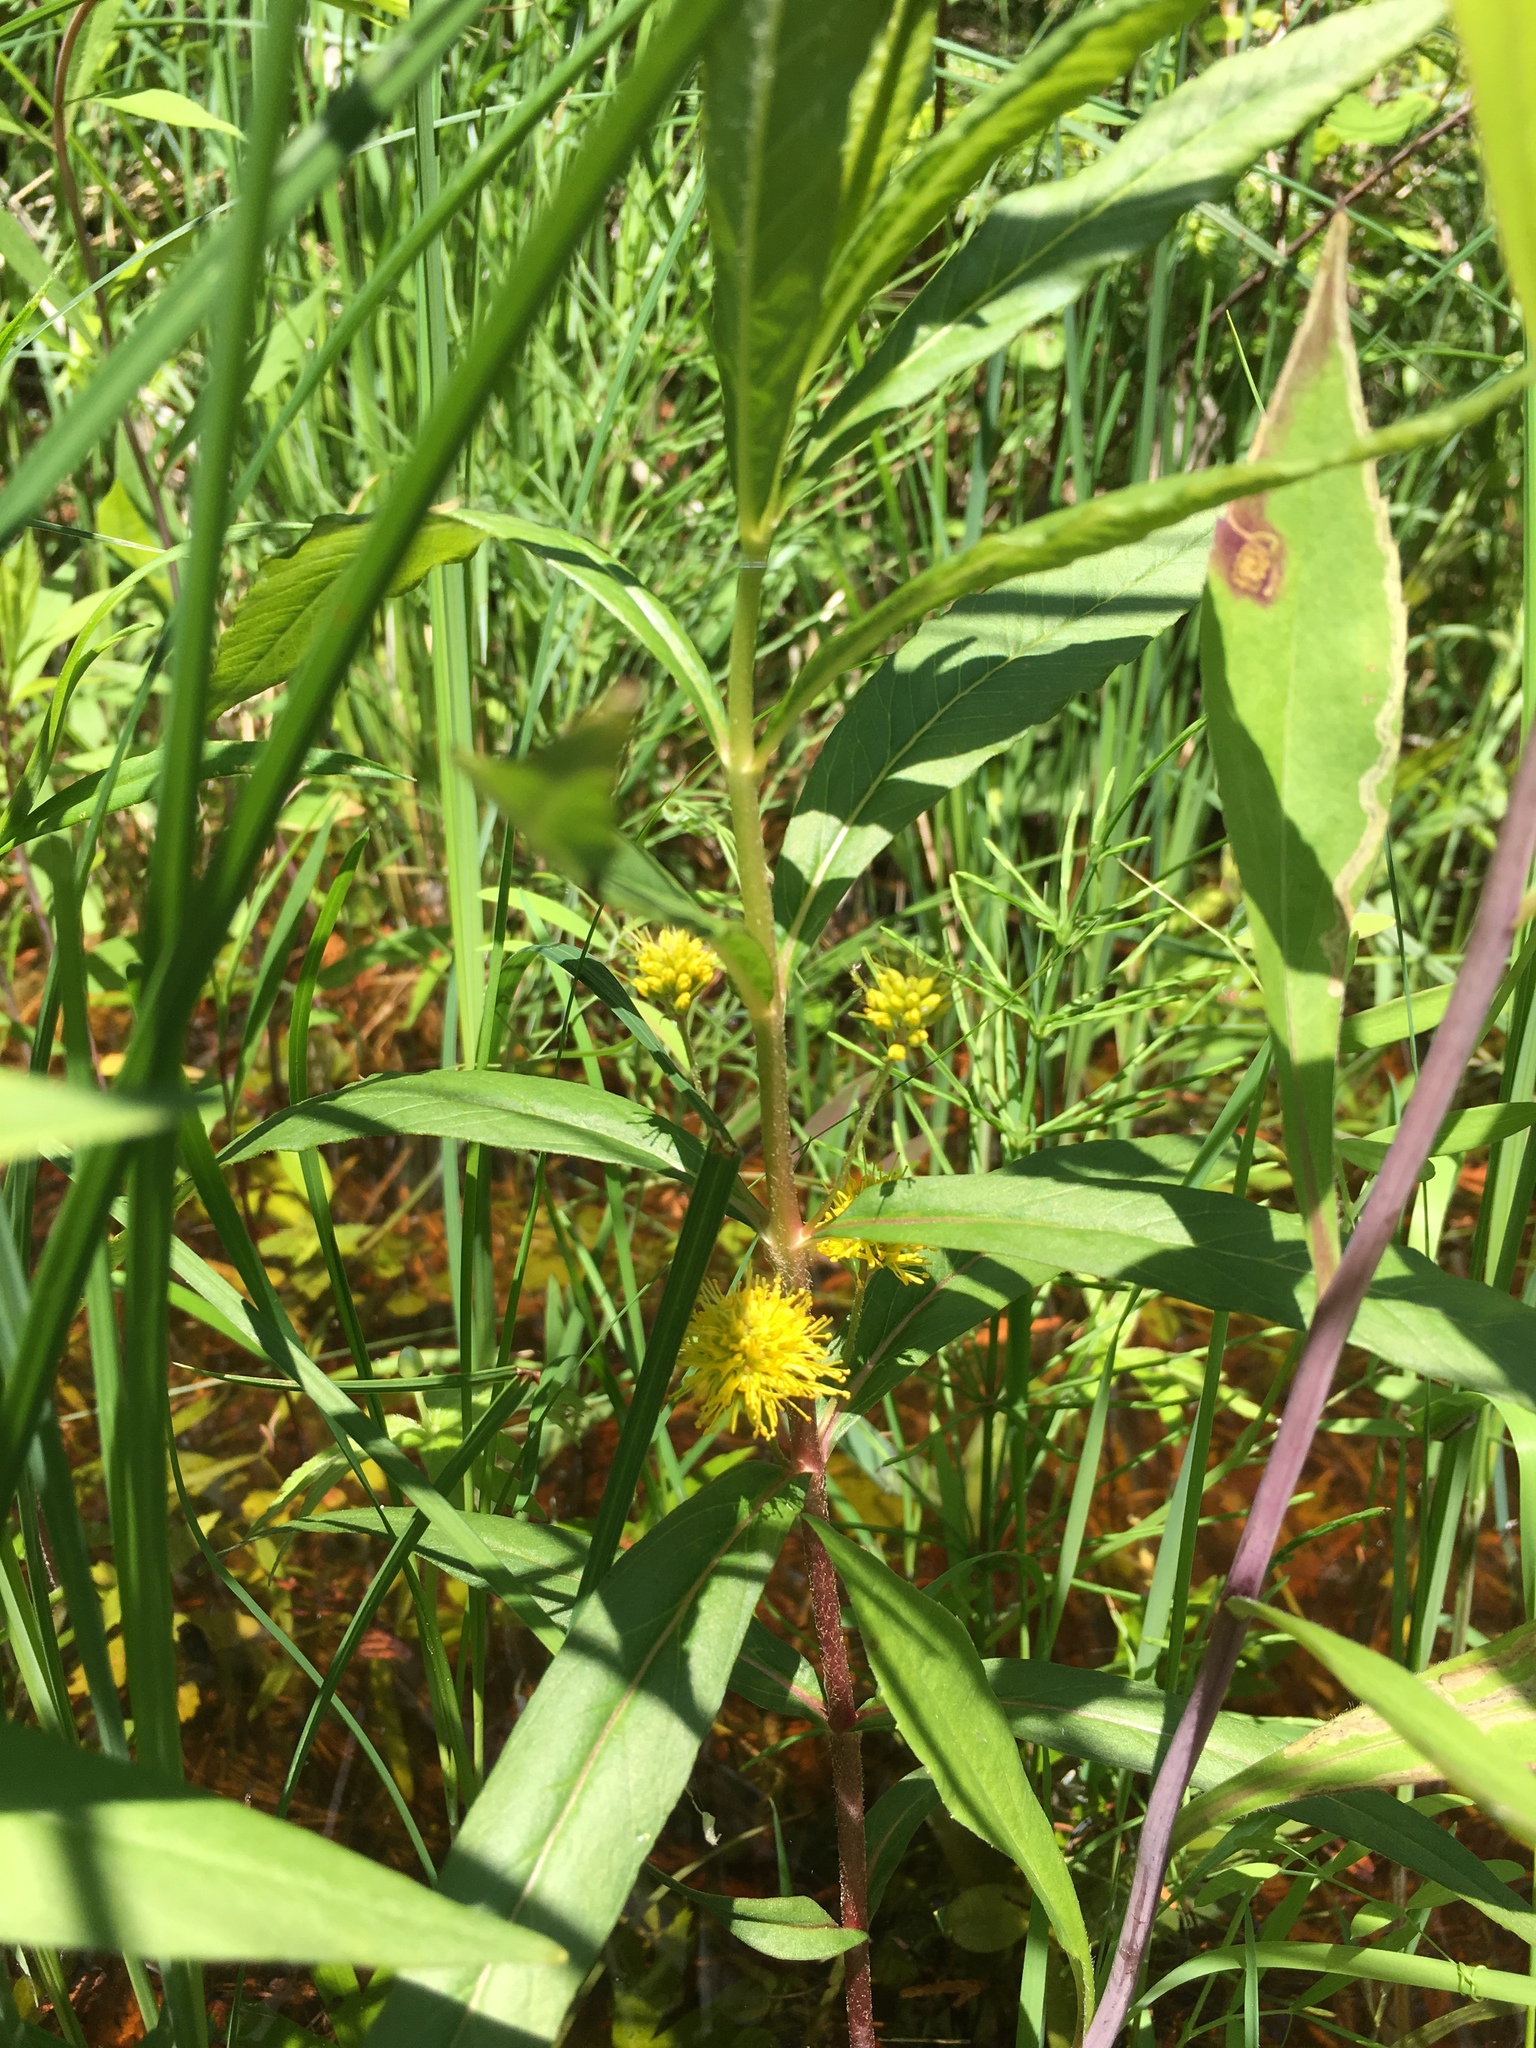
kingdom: Plantae
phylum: Tracheophyta
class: Magnoliopsida
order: Ericales
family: Primulaceae
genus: Lysimachia
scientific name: Lysimachia thyrsiflora
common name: Tufted loosestrife
